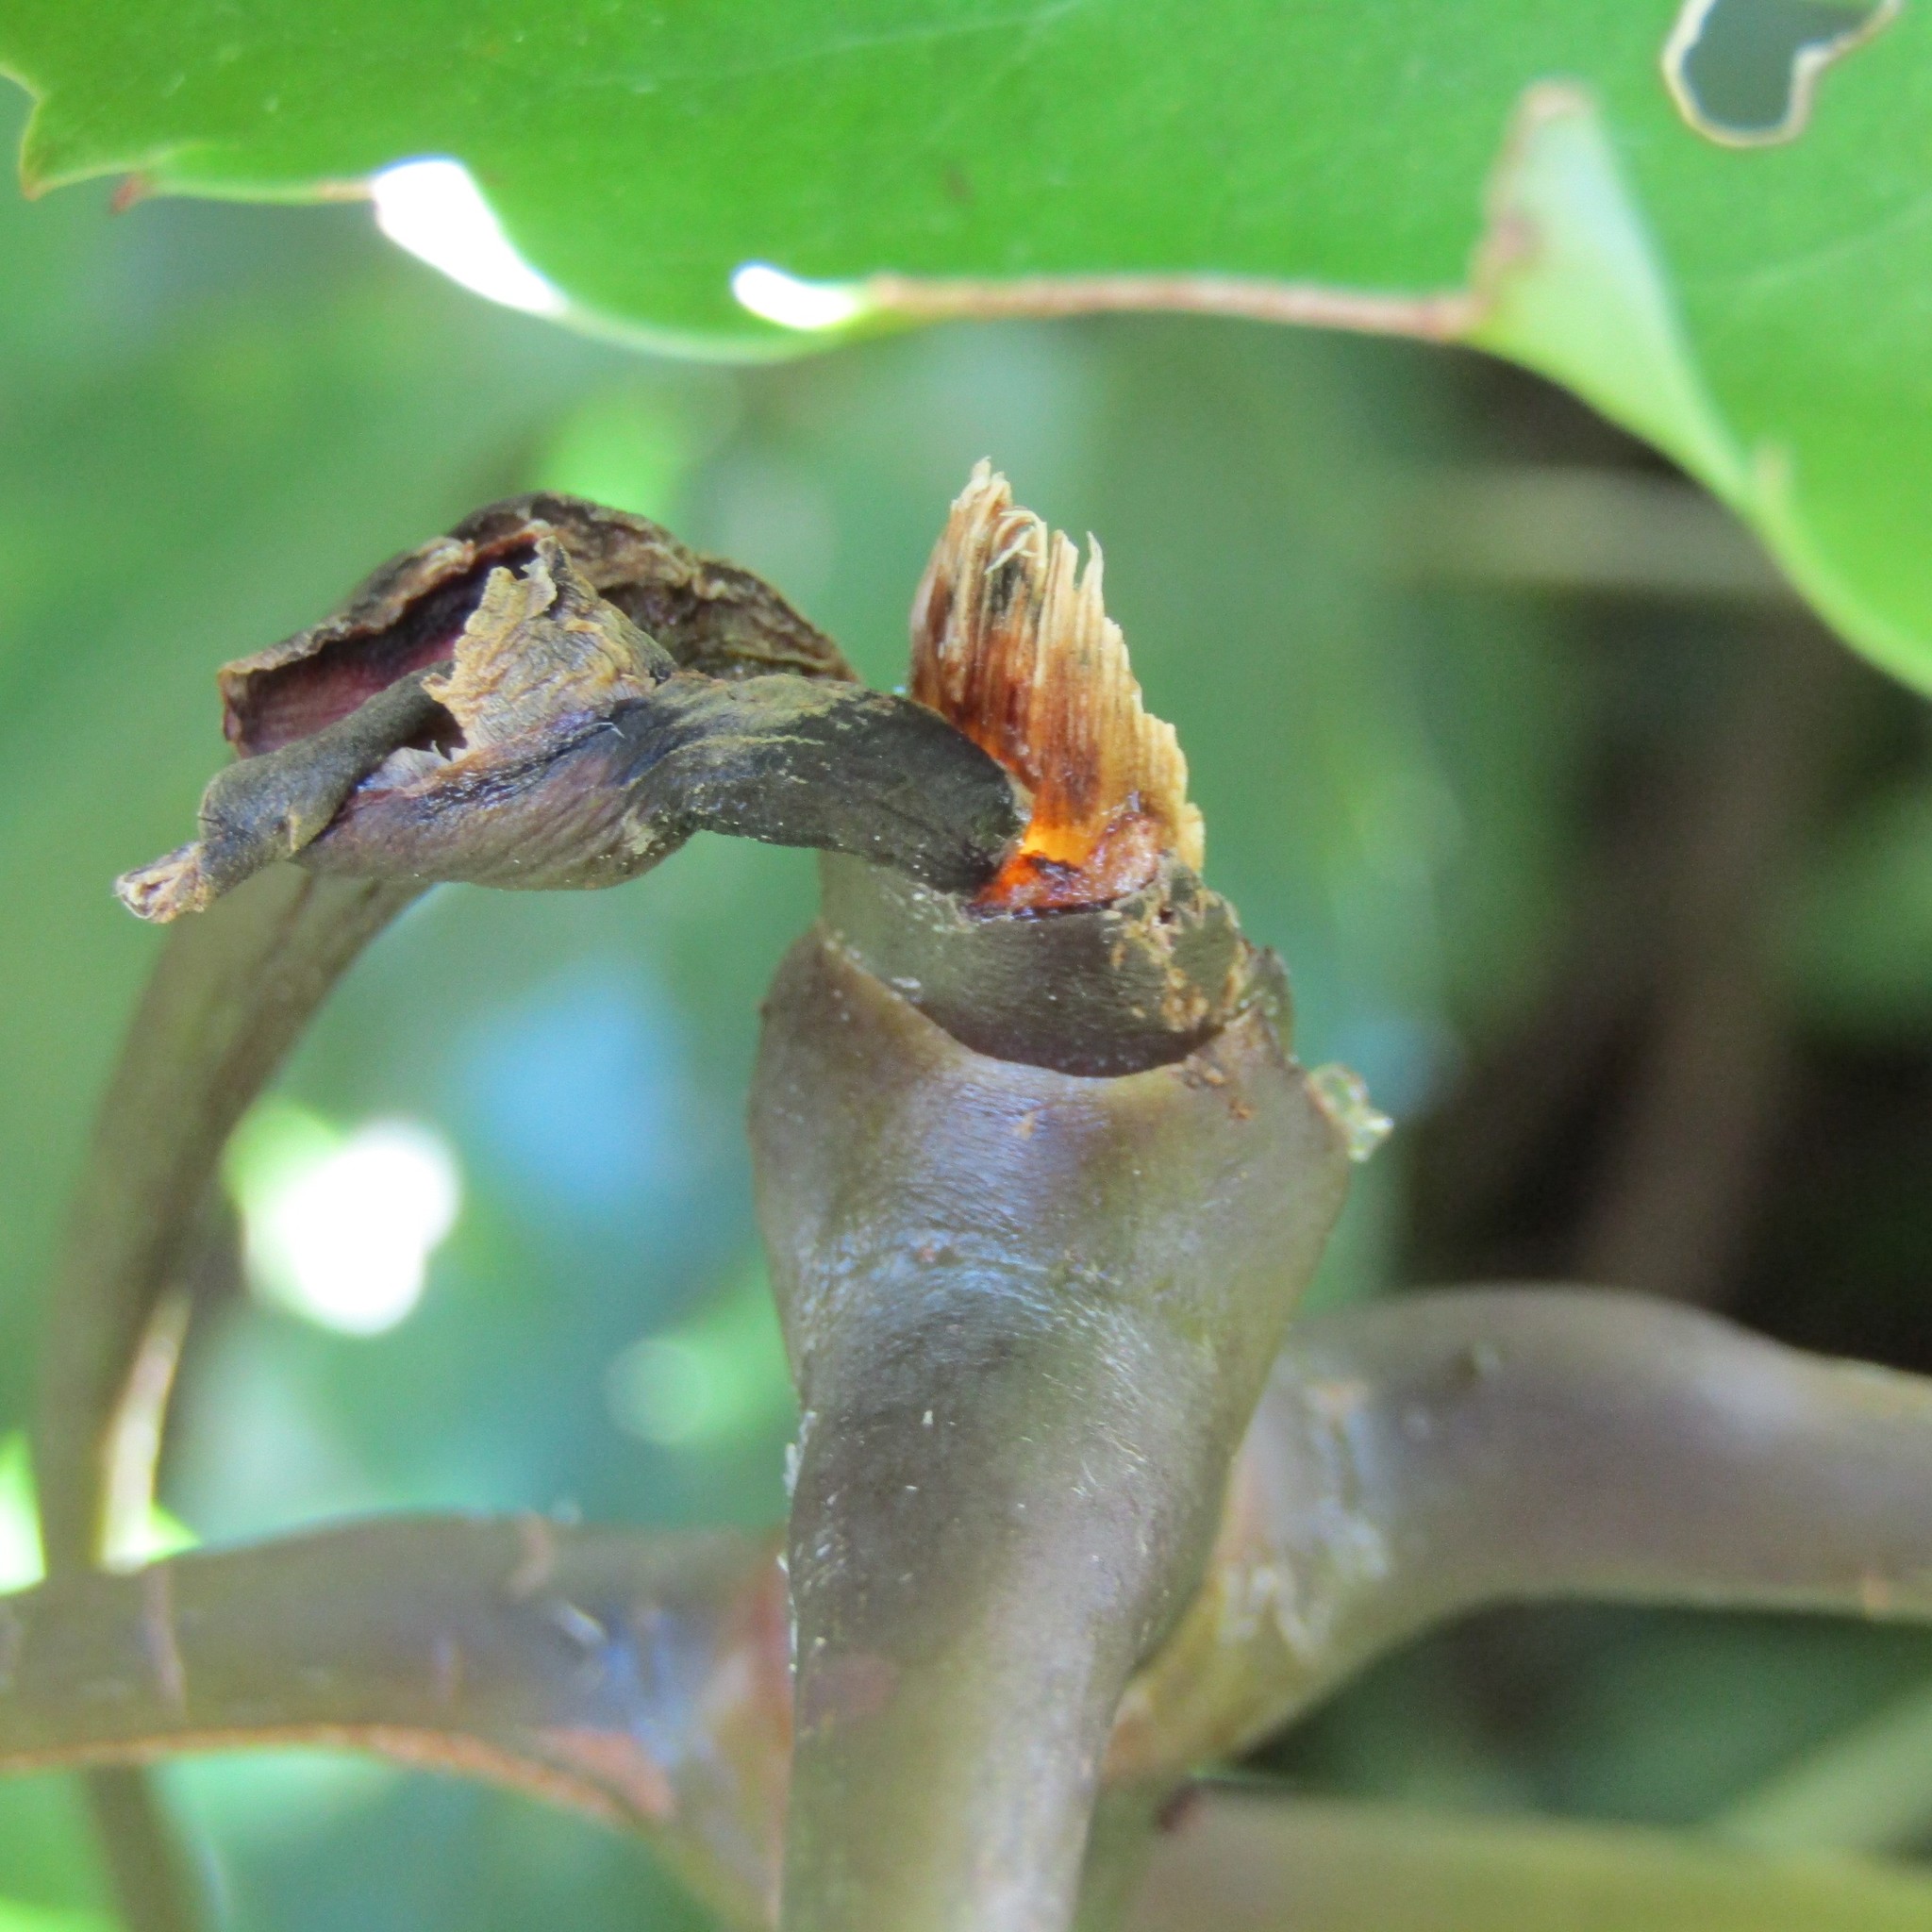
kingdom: Animalia
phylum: Chordata
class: Mammalia
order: Diprotodontia
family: Phalangeridae
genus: Trichosurus
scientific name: Trichosurus vulpecula
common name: Common brushtail
